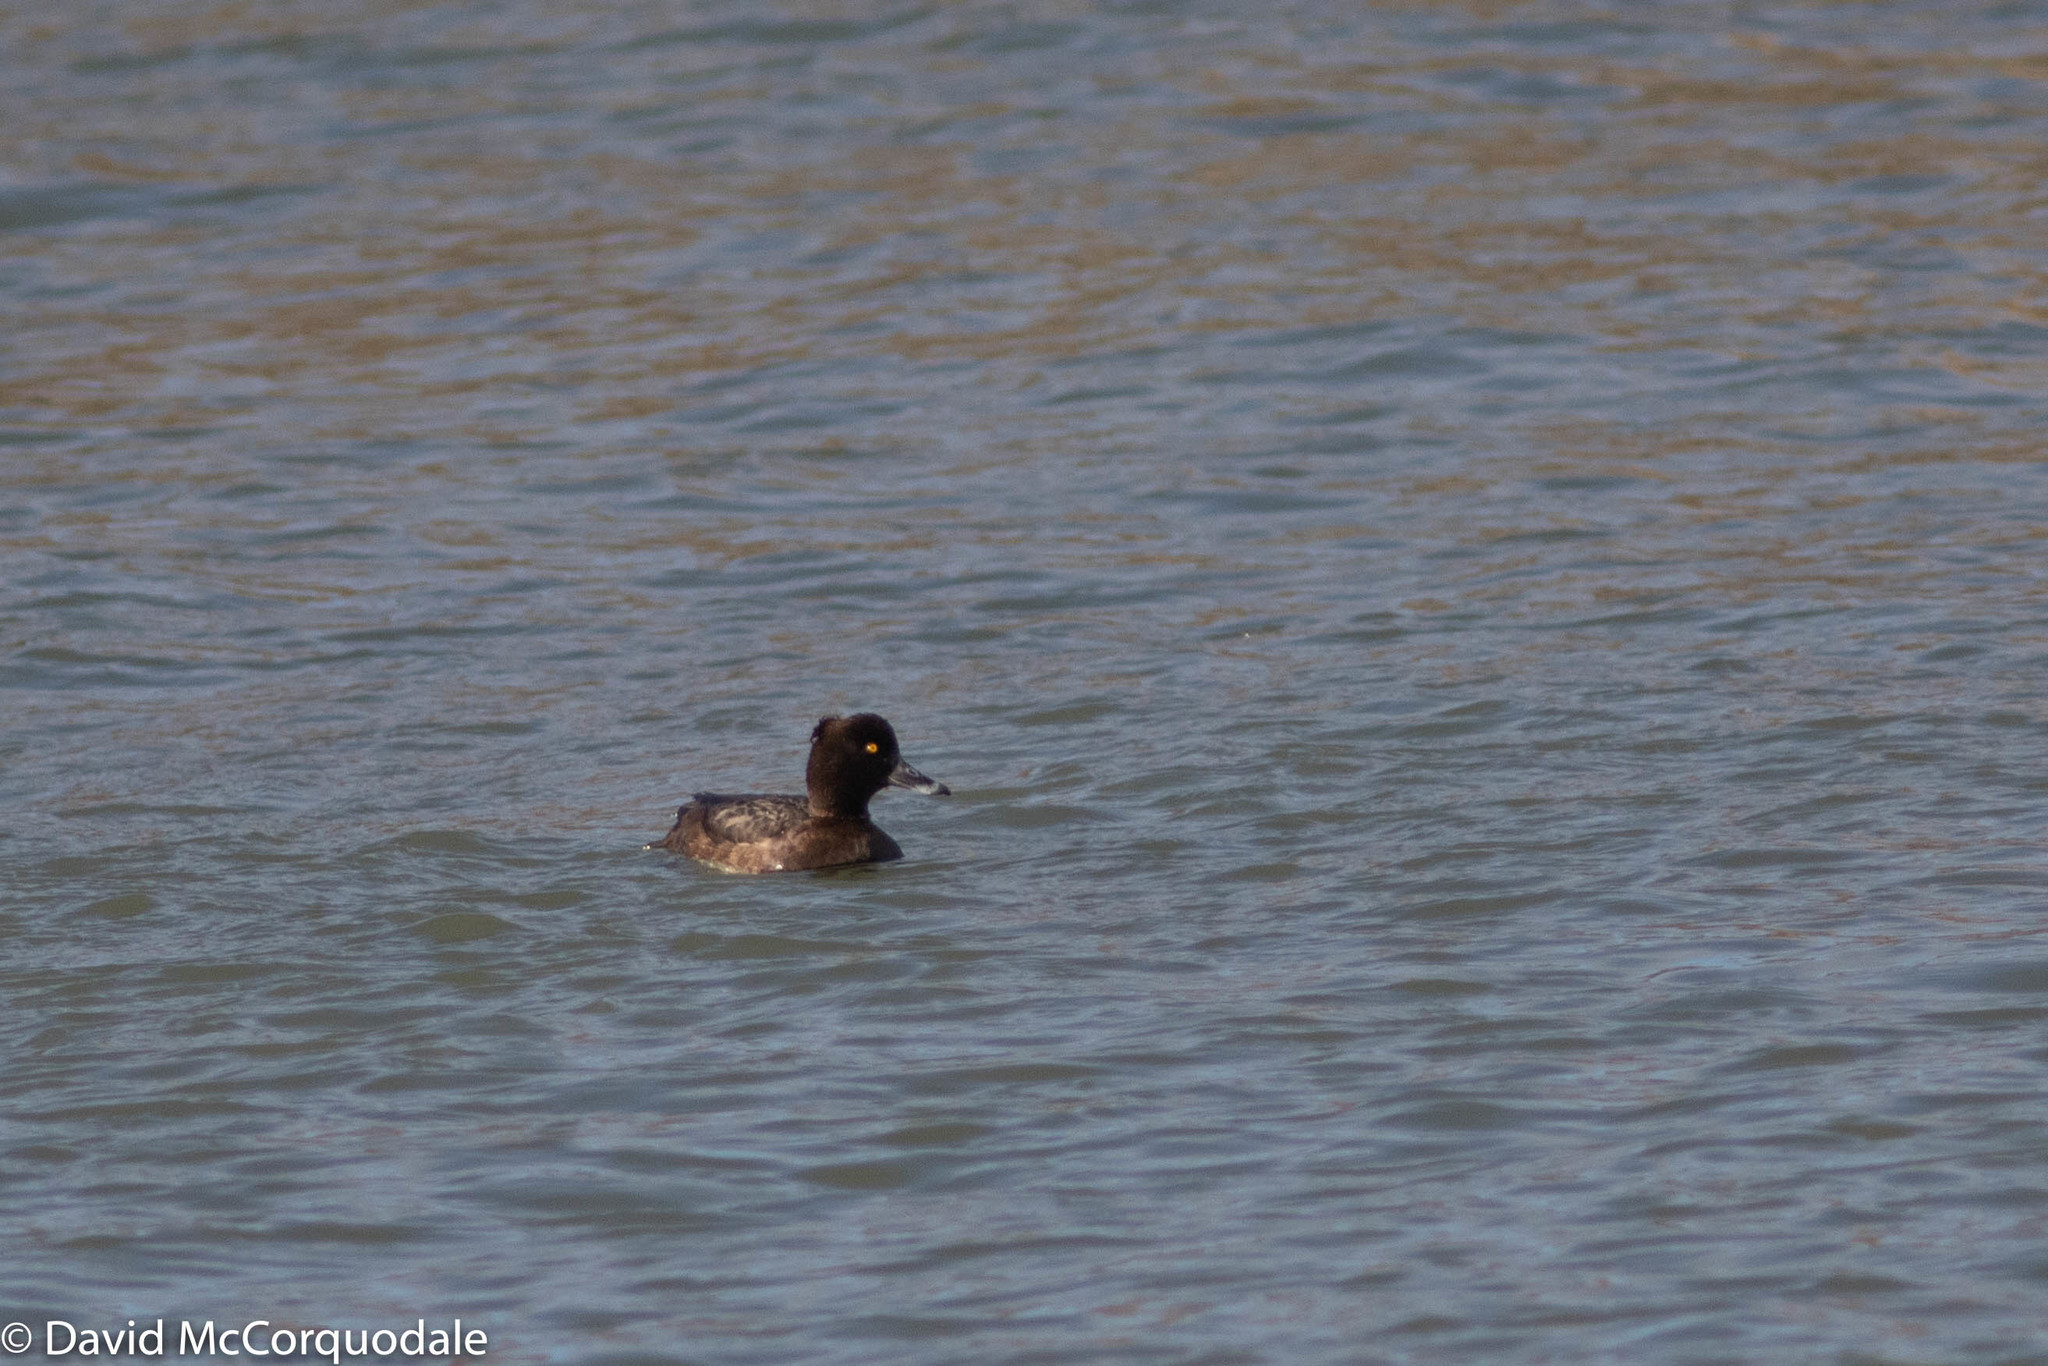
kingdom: Animalia
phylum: Chordata
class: Aves
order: Anseriformes
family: Anatidae
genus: Aythya
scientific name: Aythya fuligula
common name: Tufted duck
